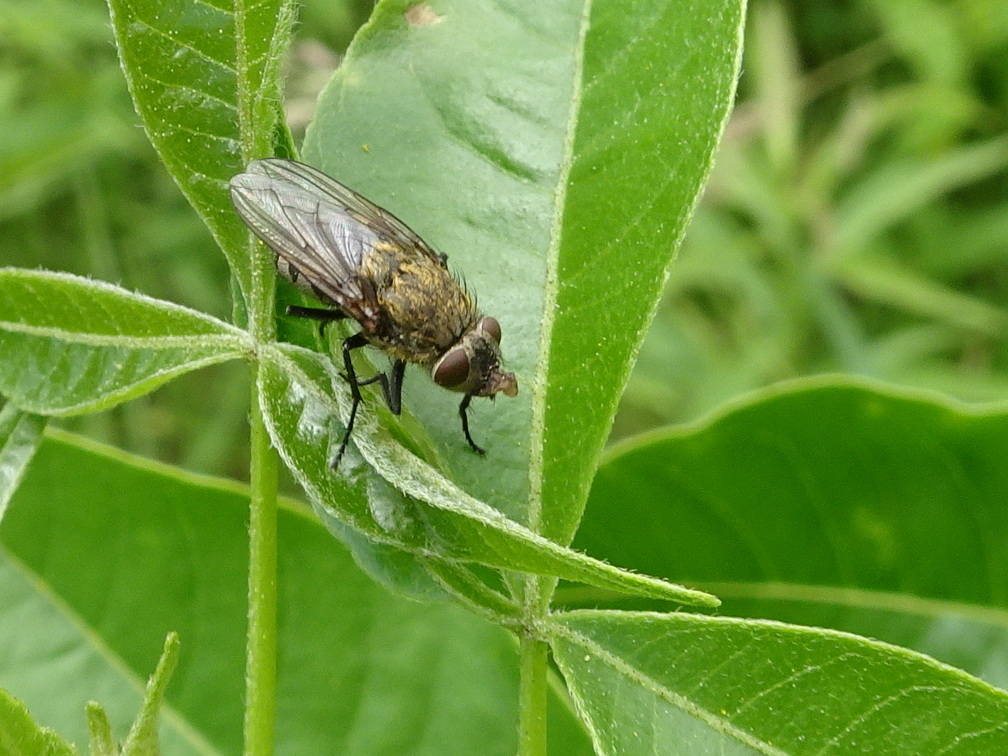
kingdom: Animalia
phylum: Arthropoda
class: Insecta
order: Diptera
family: Polleniidae
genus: Pollenia
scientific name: Pollenia
